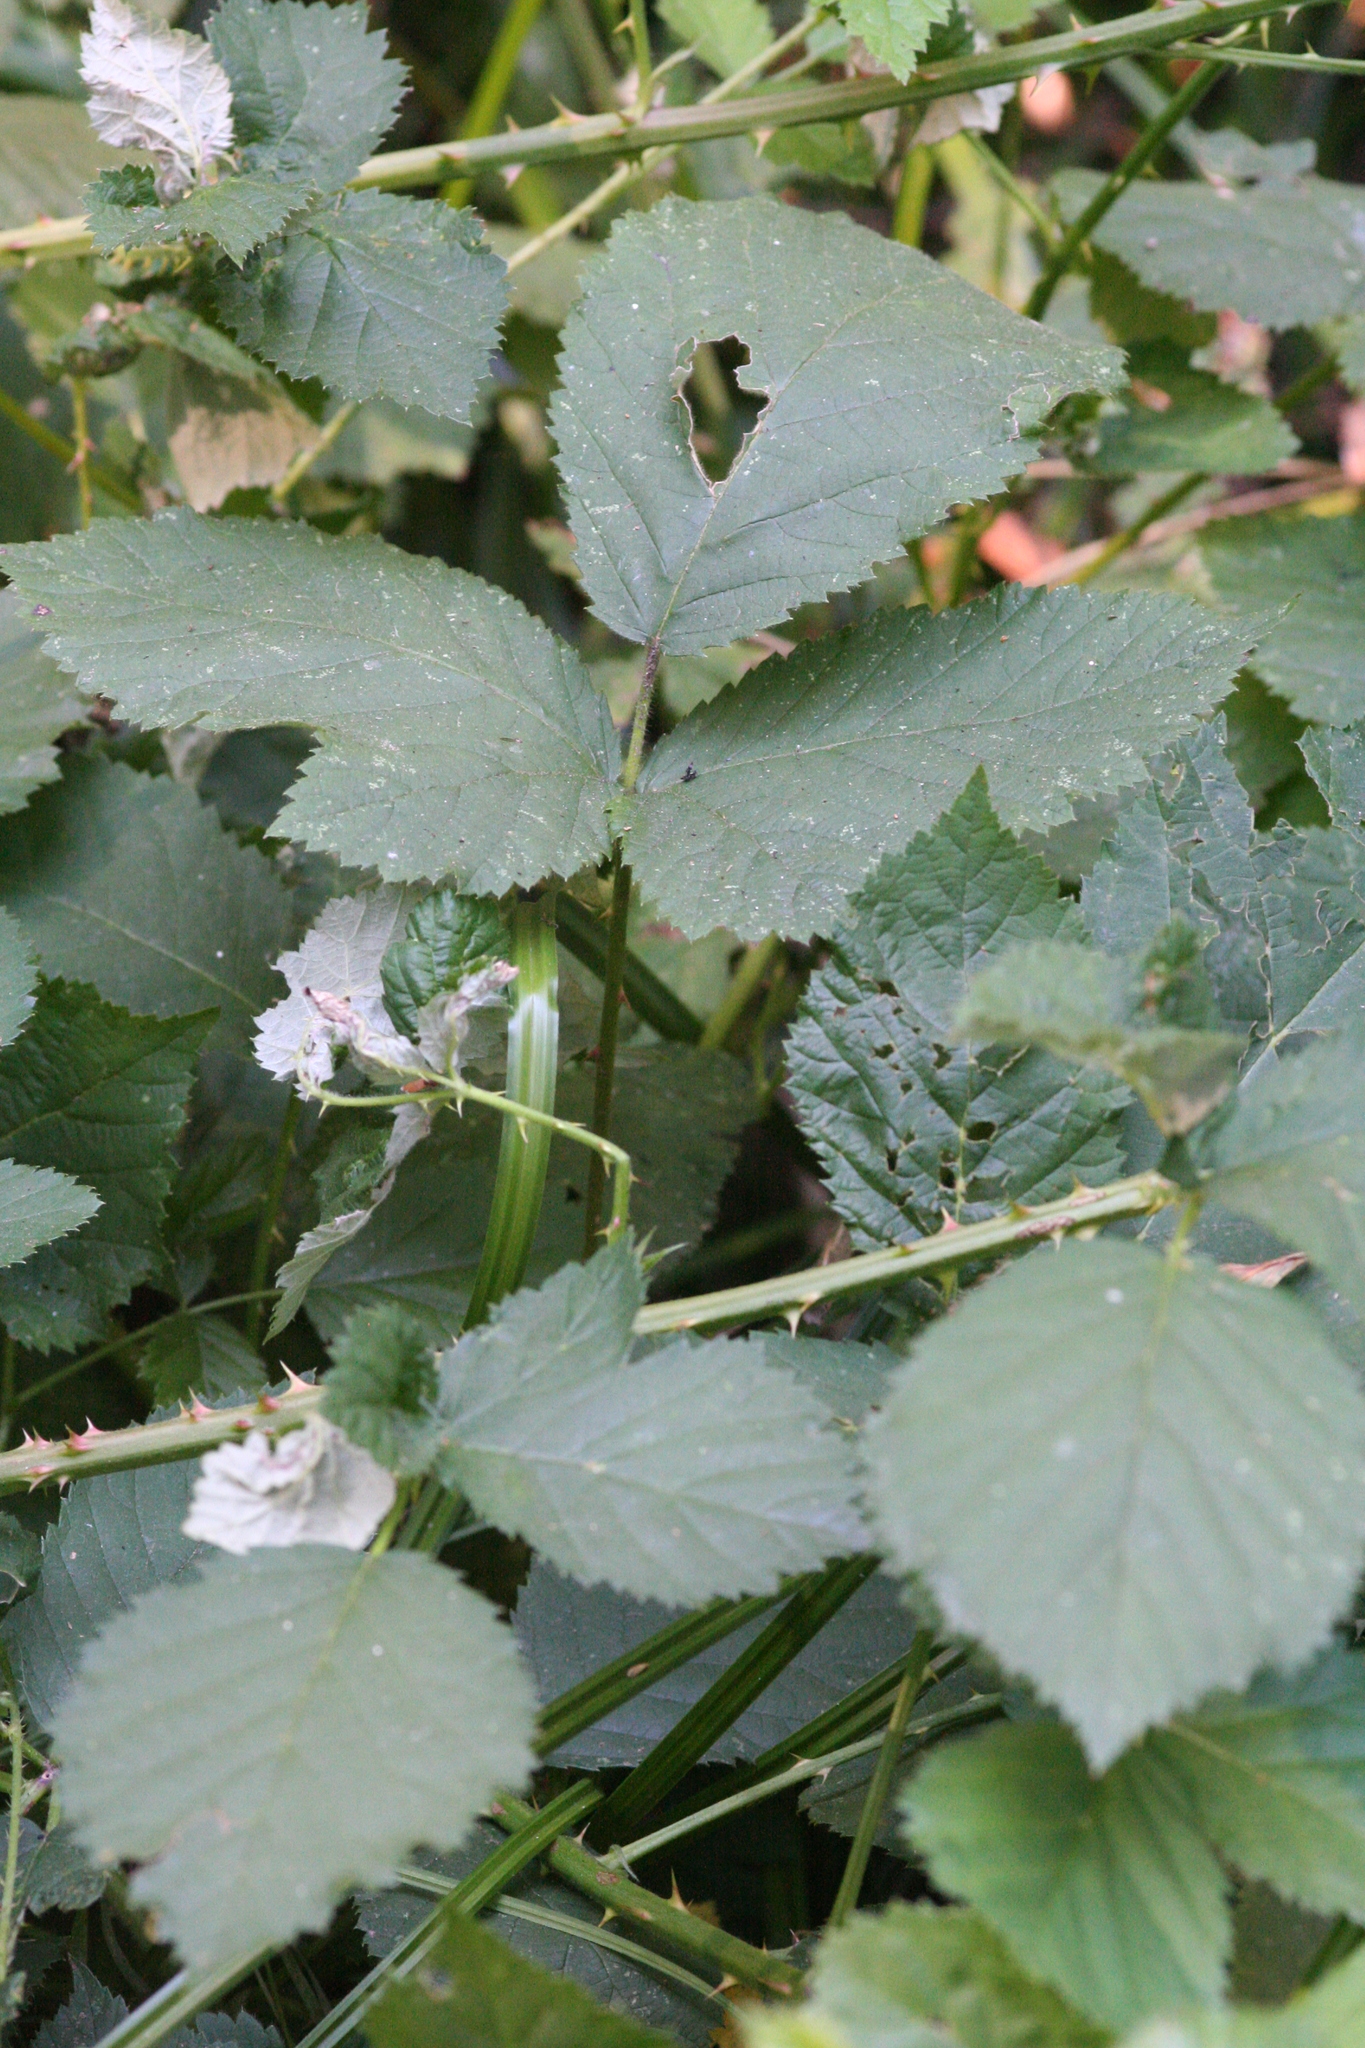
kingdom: Plantae
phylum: Tracheophyta
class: Magnoliopsida
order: Rosales
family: Rosaceae
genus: Rubus
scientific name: Rubus armeniacus
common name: Himalayan blackberry
